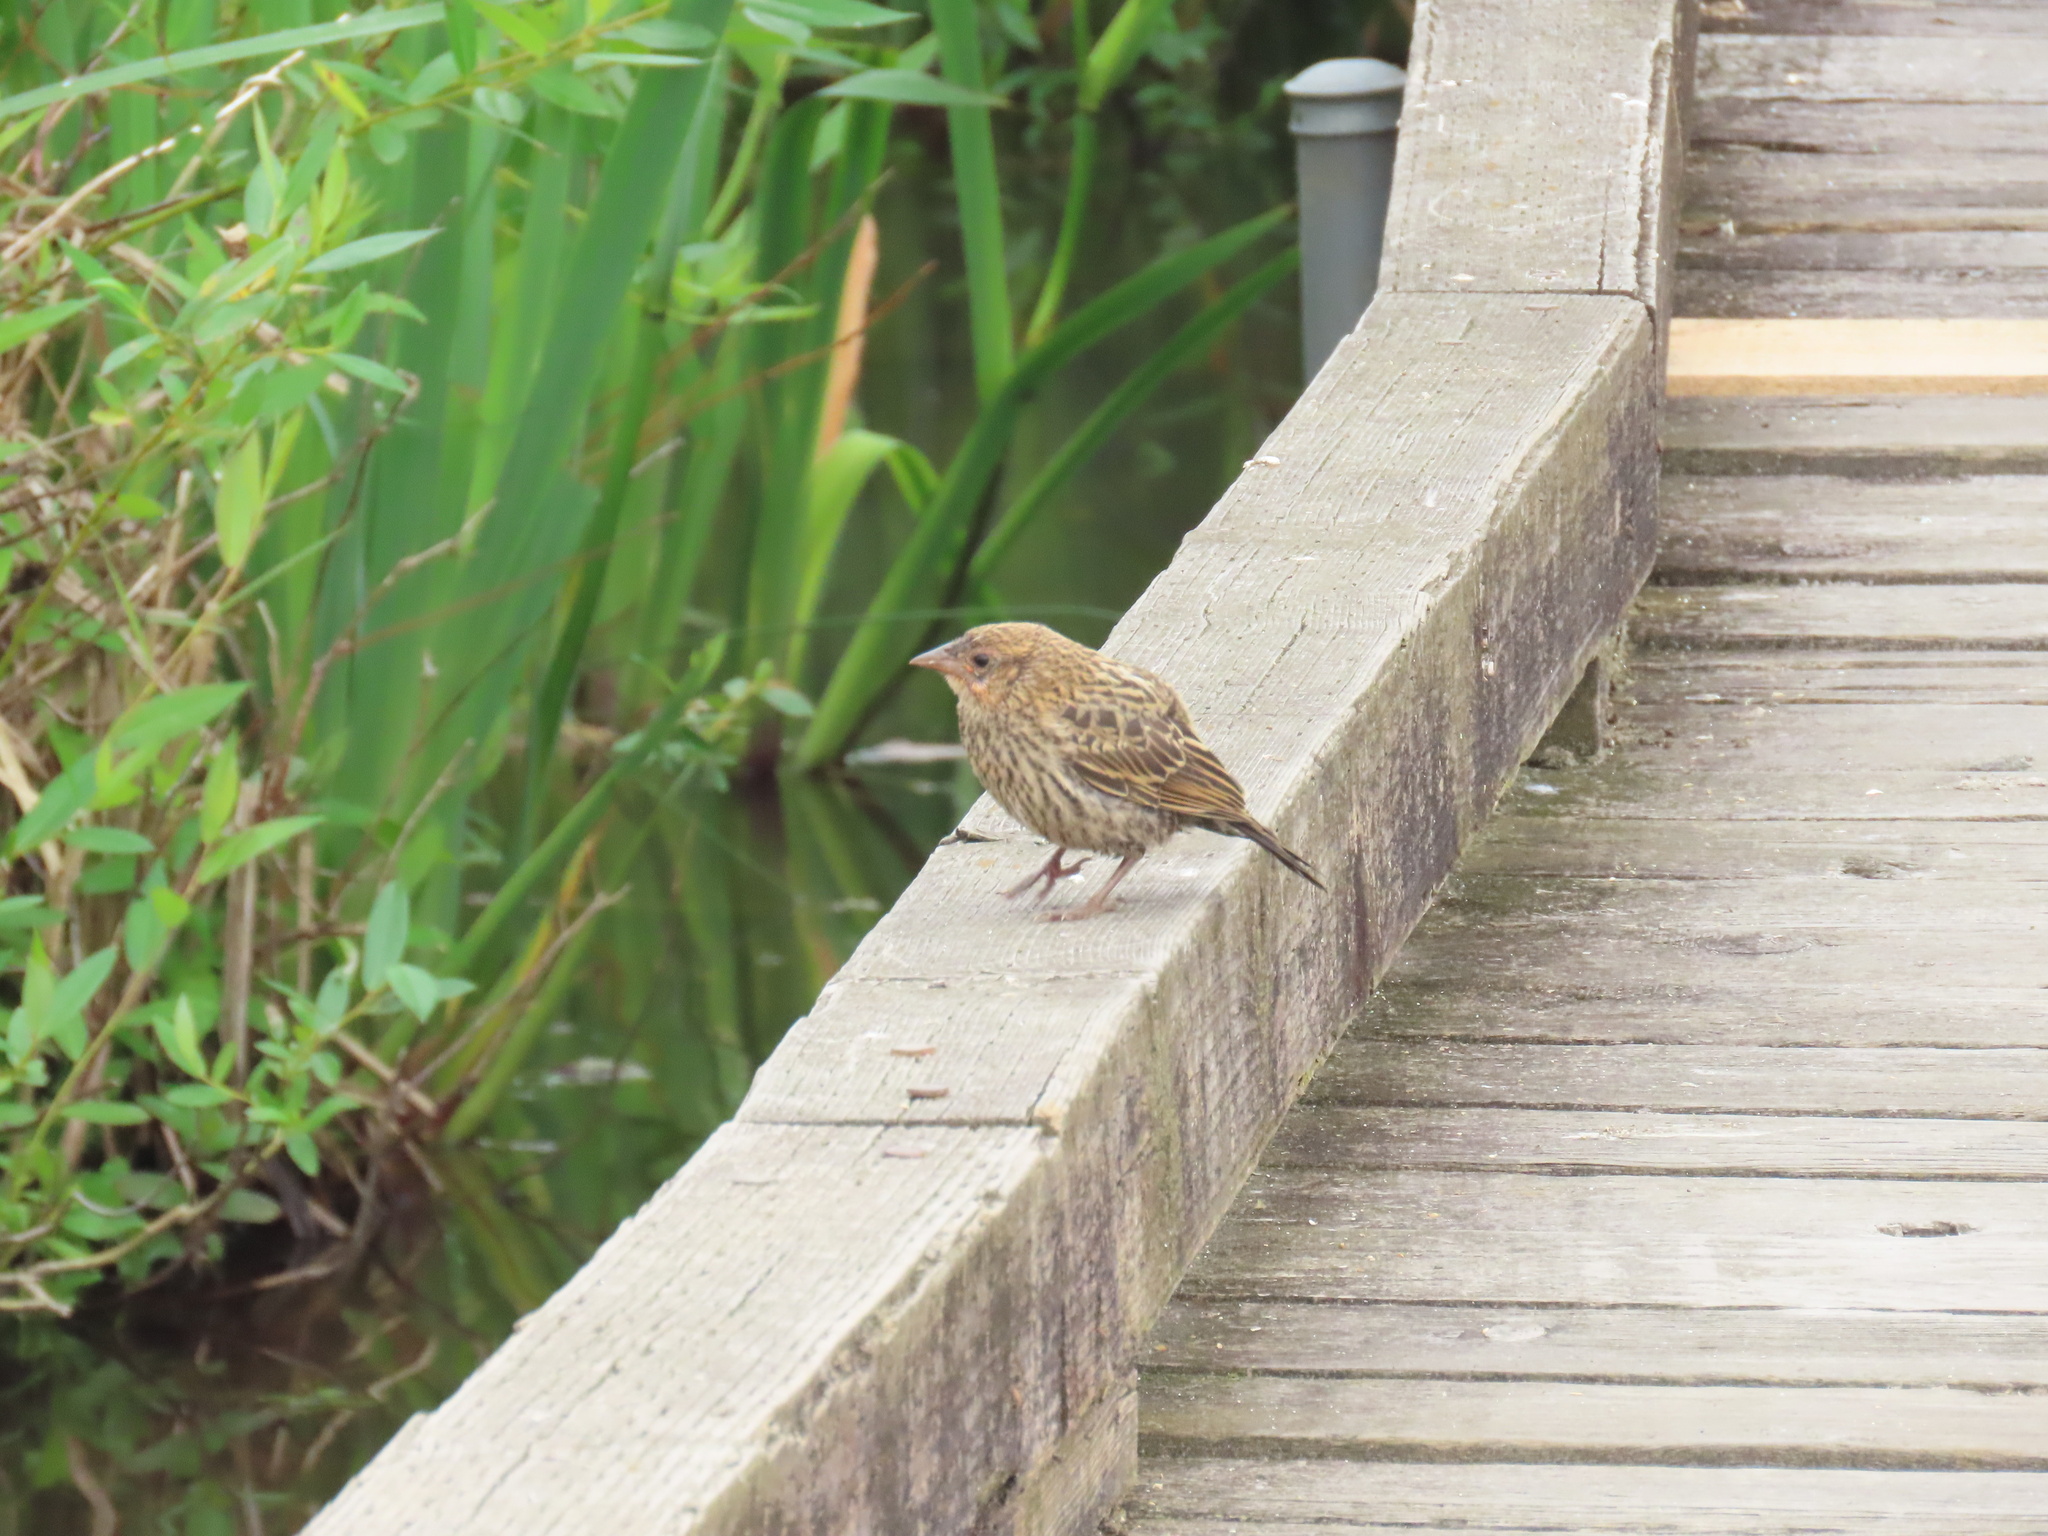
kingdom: Animalia
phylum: Chordata
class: Aves
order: Passeriformes
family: Icteridae
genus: Agelaius
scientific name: Agelaius phoeniceus
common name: Red-winged blackbird
